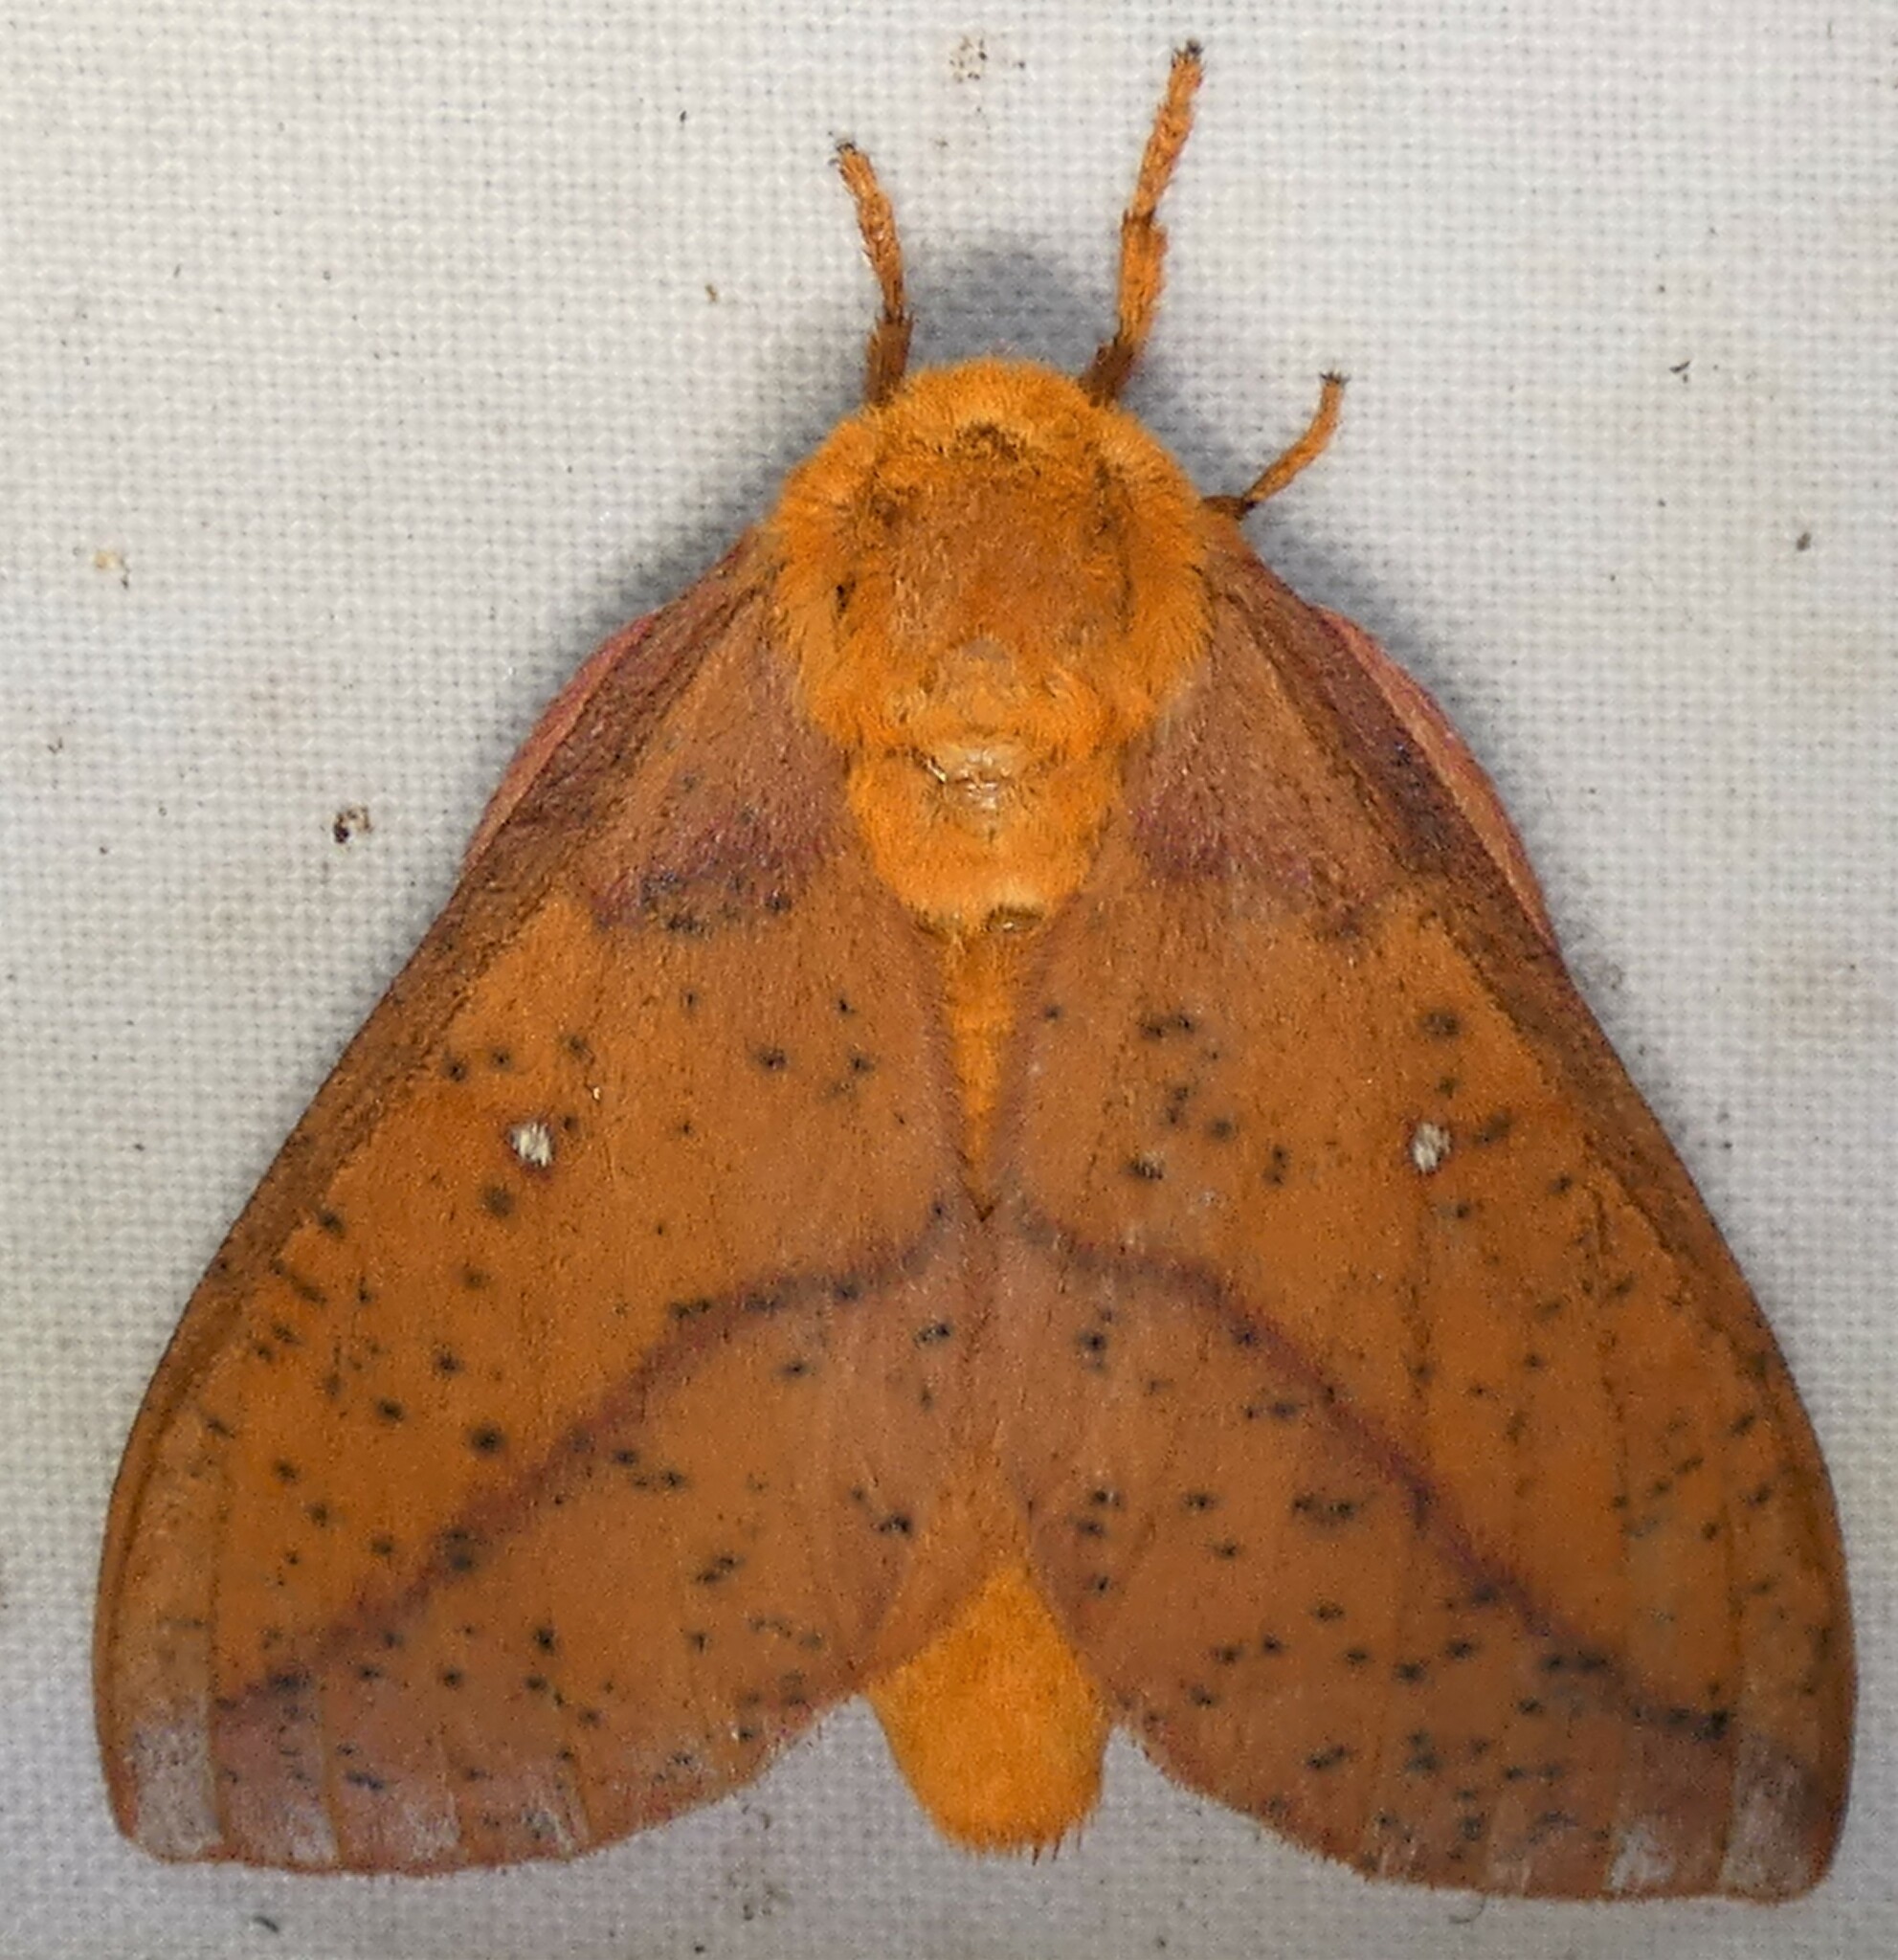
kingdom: Animalia
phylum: Arthropoda
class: Insecta
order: Lepidoptera
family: Saturniidae
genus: Anisota
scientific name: Anisota stigma
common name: Spiny oakworm moth
